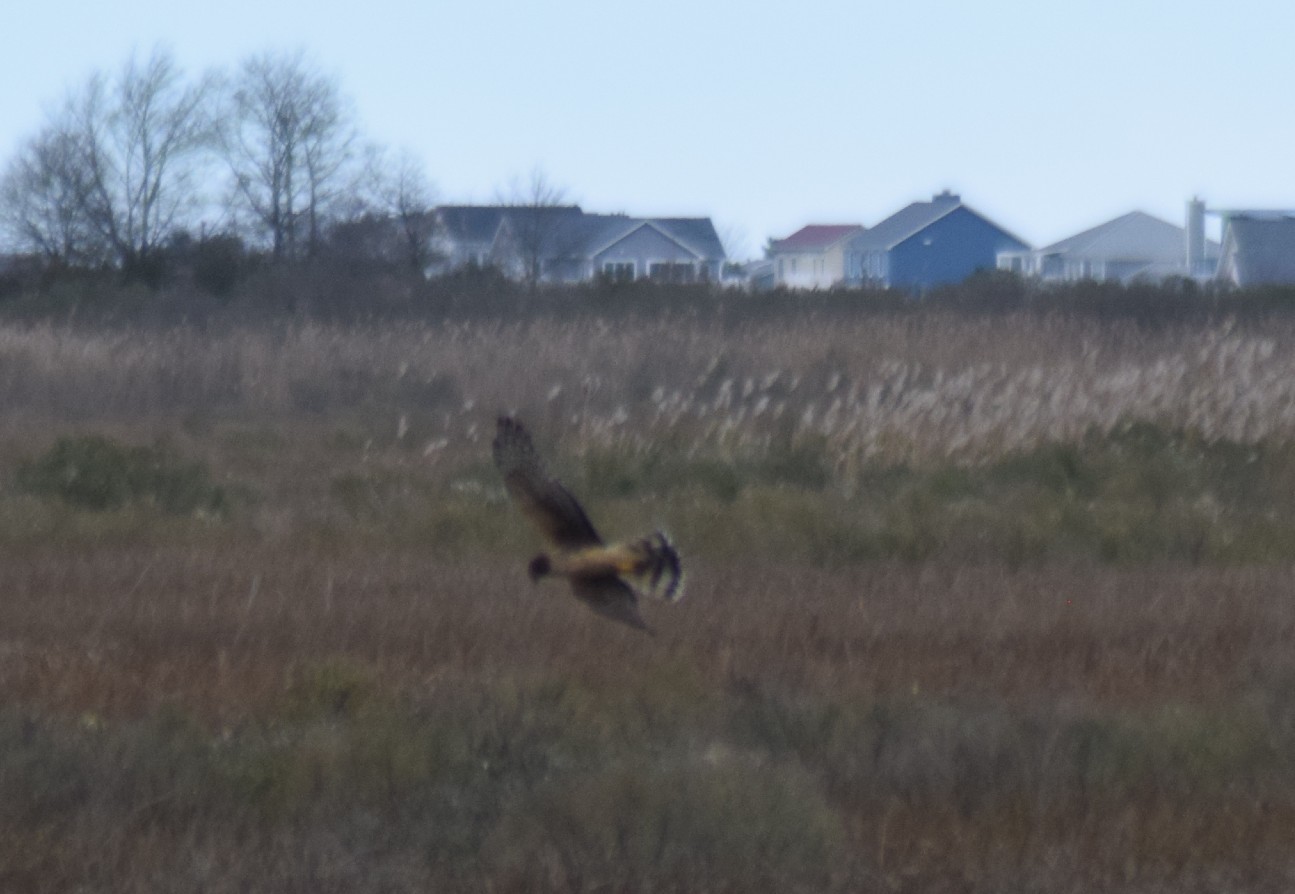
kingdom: Animalia
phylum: Chordata
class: Aves
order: Accipitriformes
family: Accipitridae
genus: Circus
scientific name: Circus cyaneus
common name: Hen harrier
